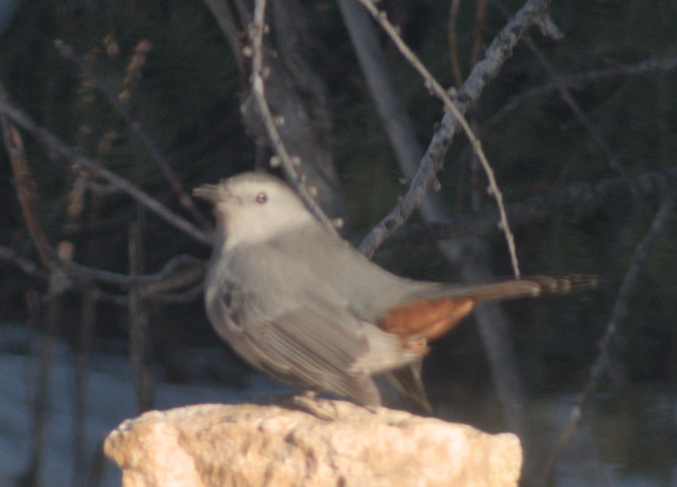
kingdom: Animalia
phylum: Chordata
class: Aves
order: Passeriformes
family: Mimidae
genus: Dumetella
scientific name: Dumetella carolinensis
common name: Gray catbird
